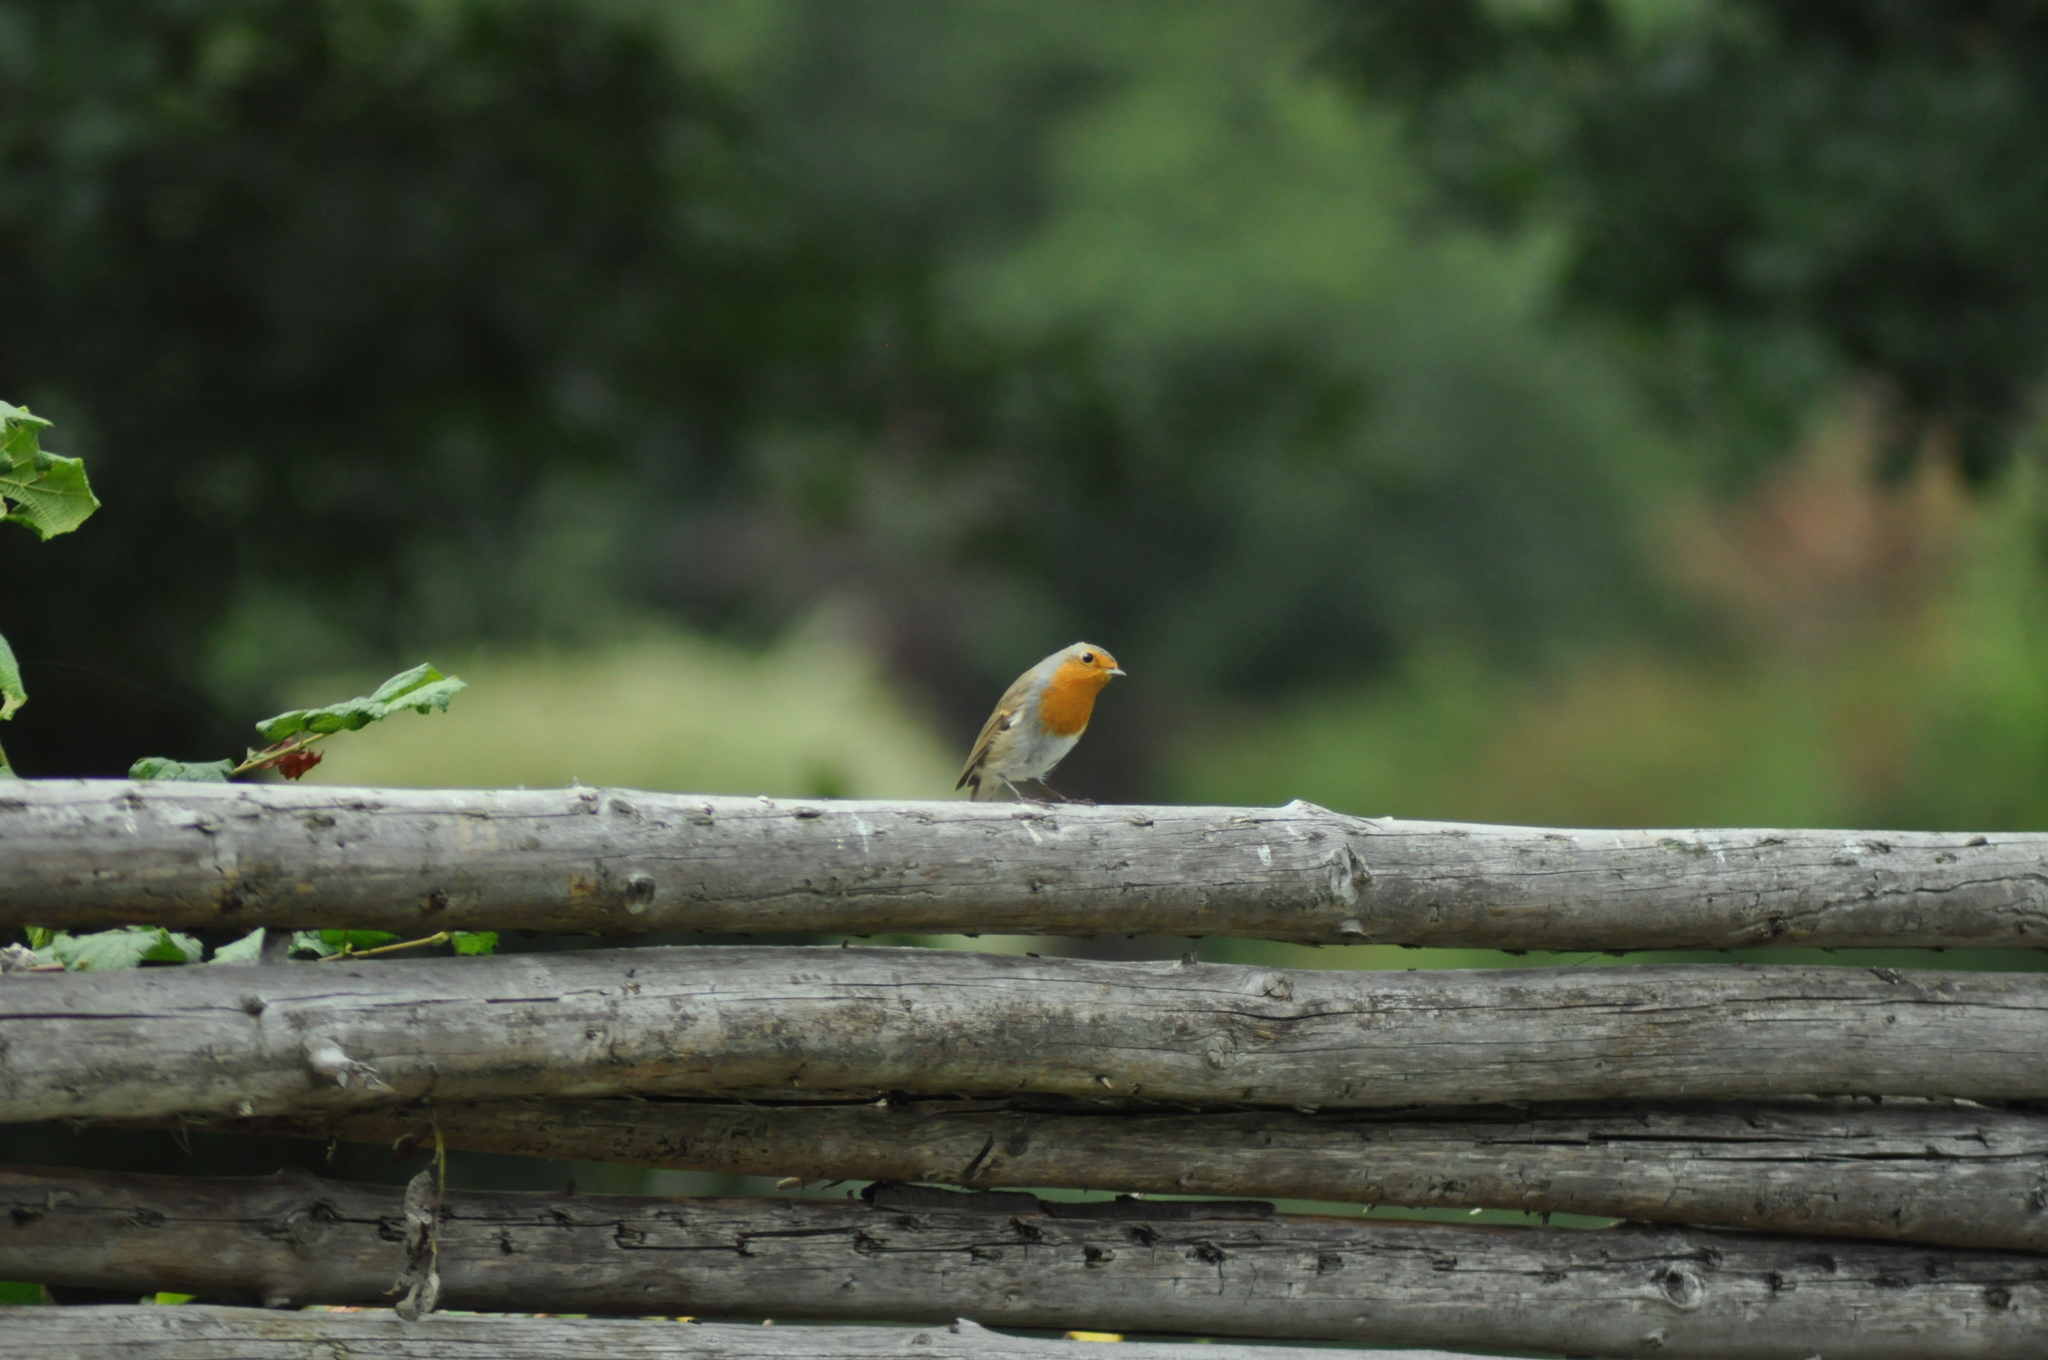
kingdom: Animalia
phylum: Chordata
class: Aves
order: Passeriformes
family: Muscicapidae
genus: Erithacus
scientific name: Erithacus rubecula
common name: European robin
